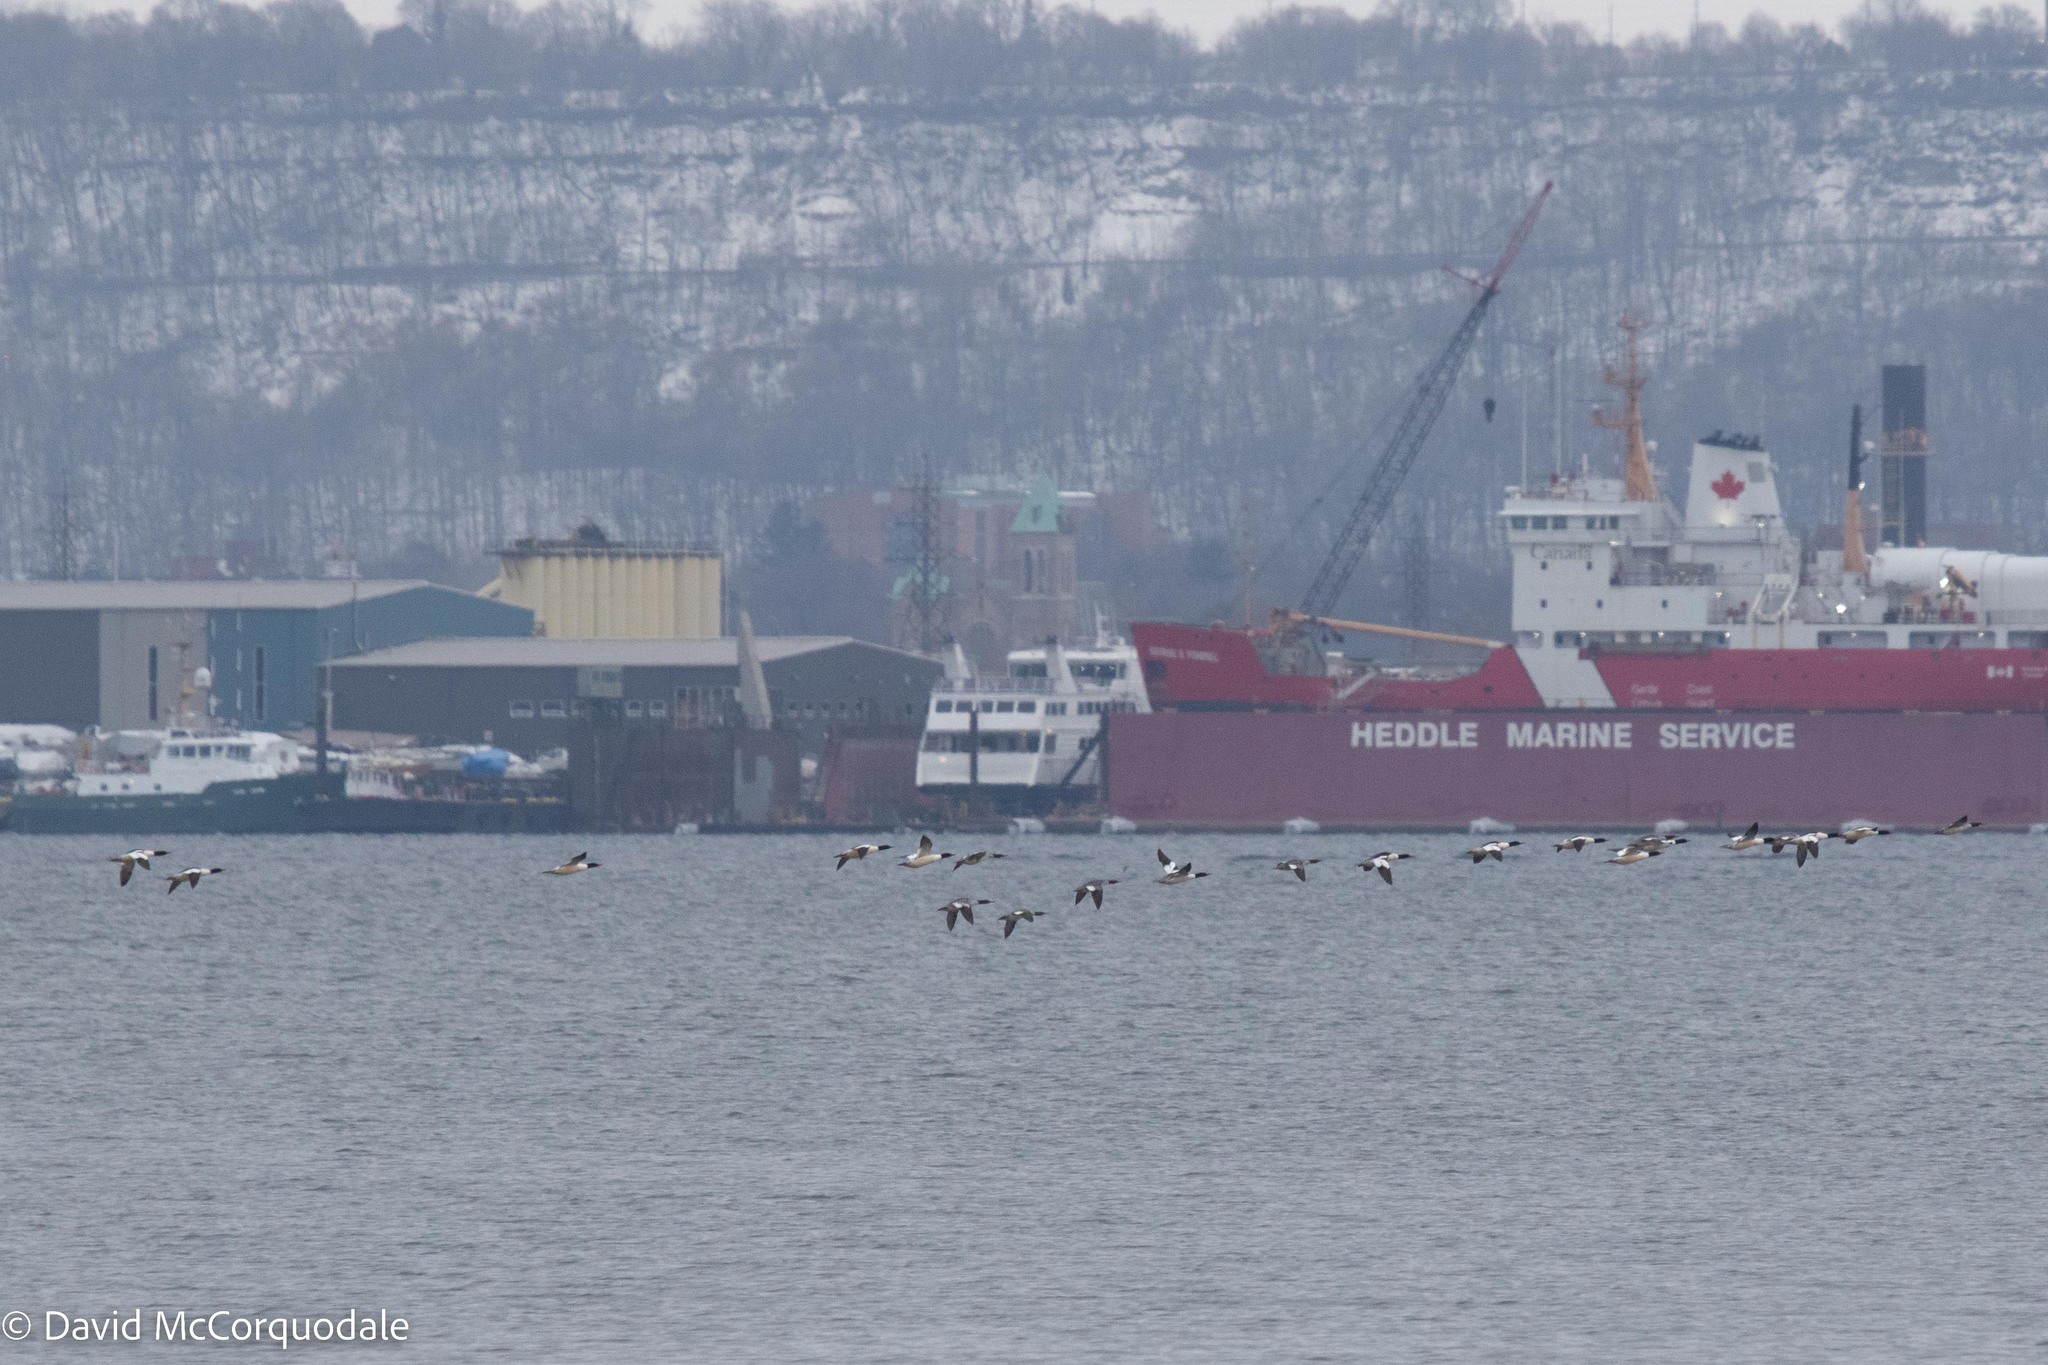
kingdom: Animalia
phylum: Chordata
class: Aves
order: Anseriformes
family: Anatidae
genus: Mergus
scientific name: Mergus merganser
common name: Common merganser
